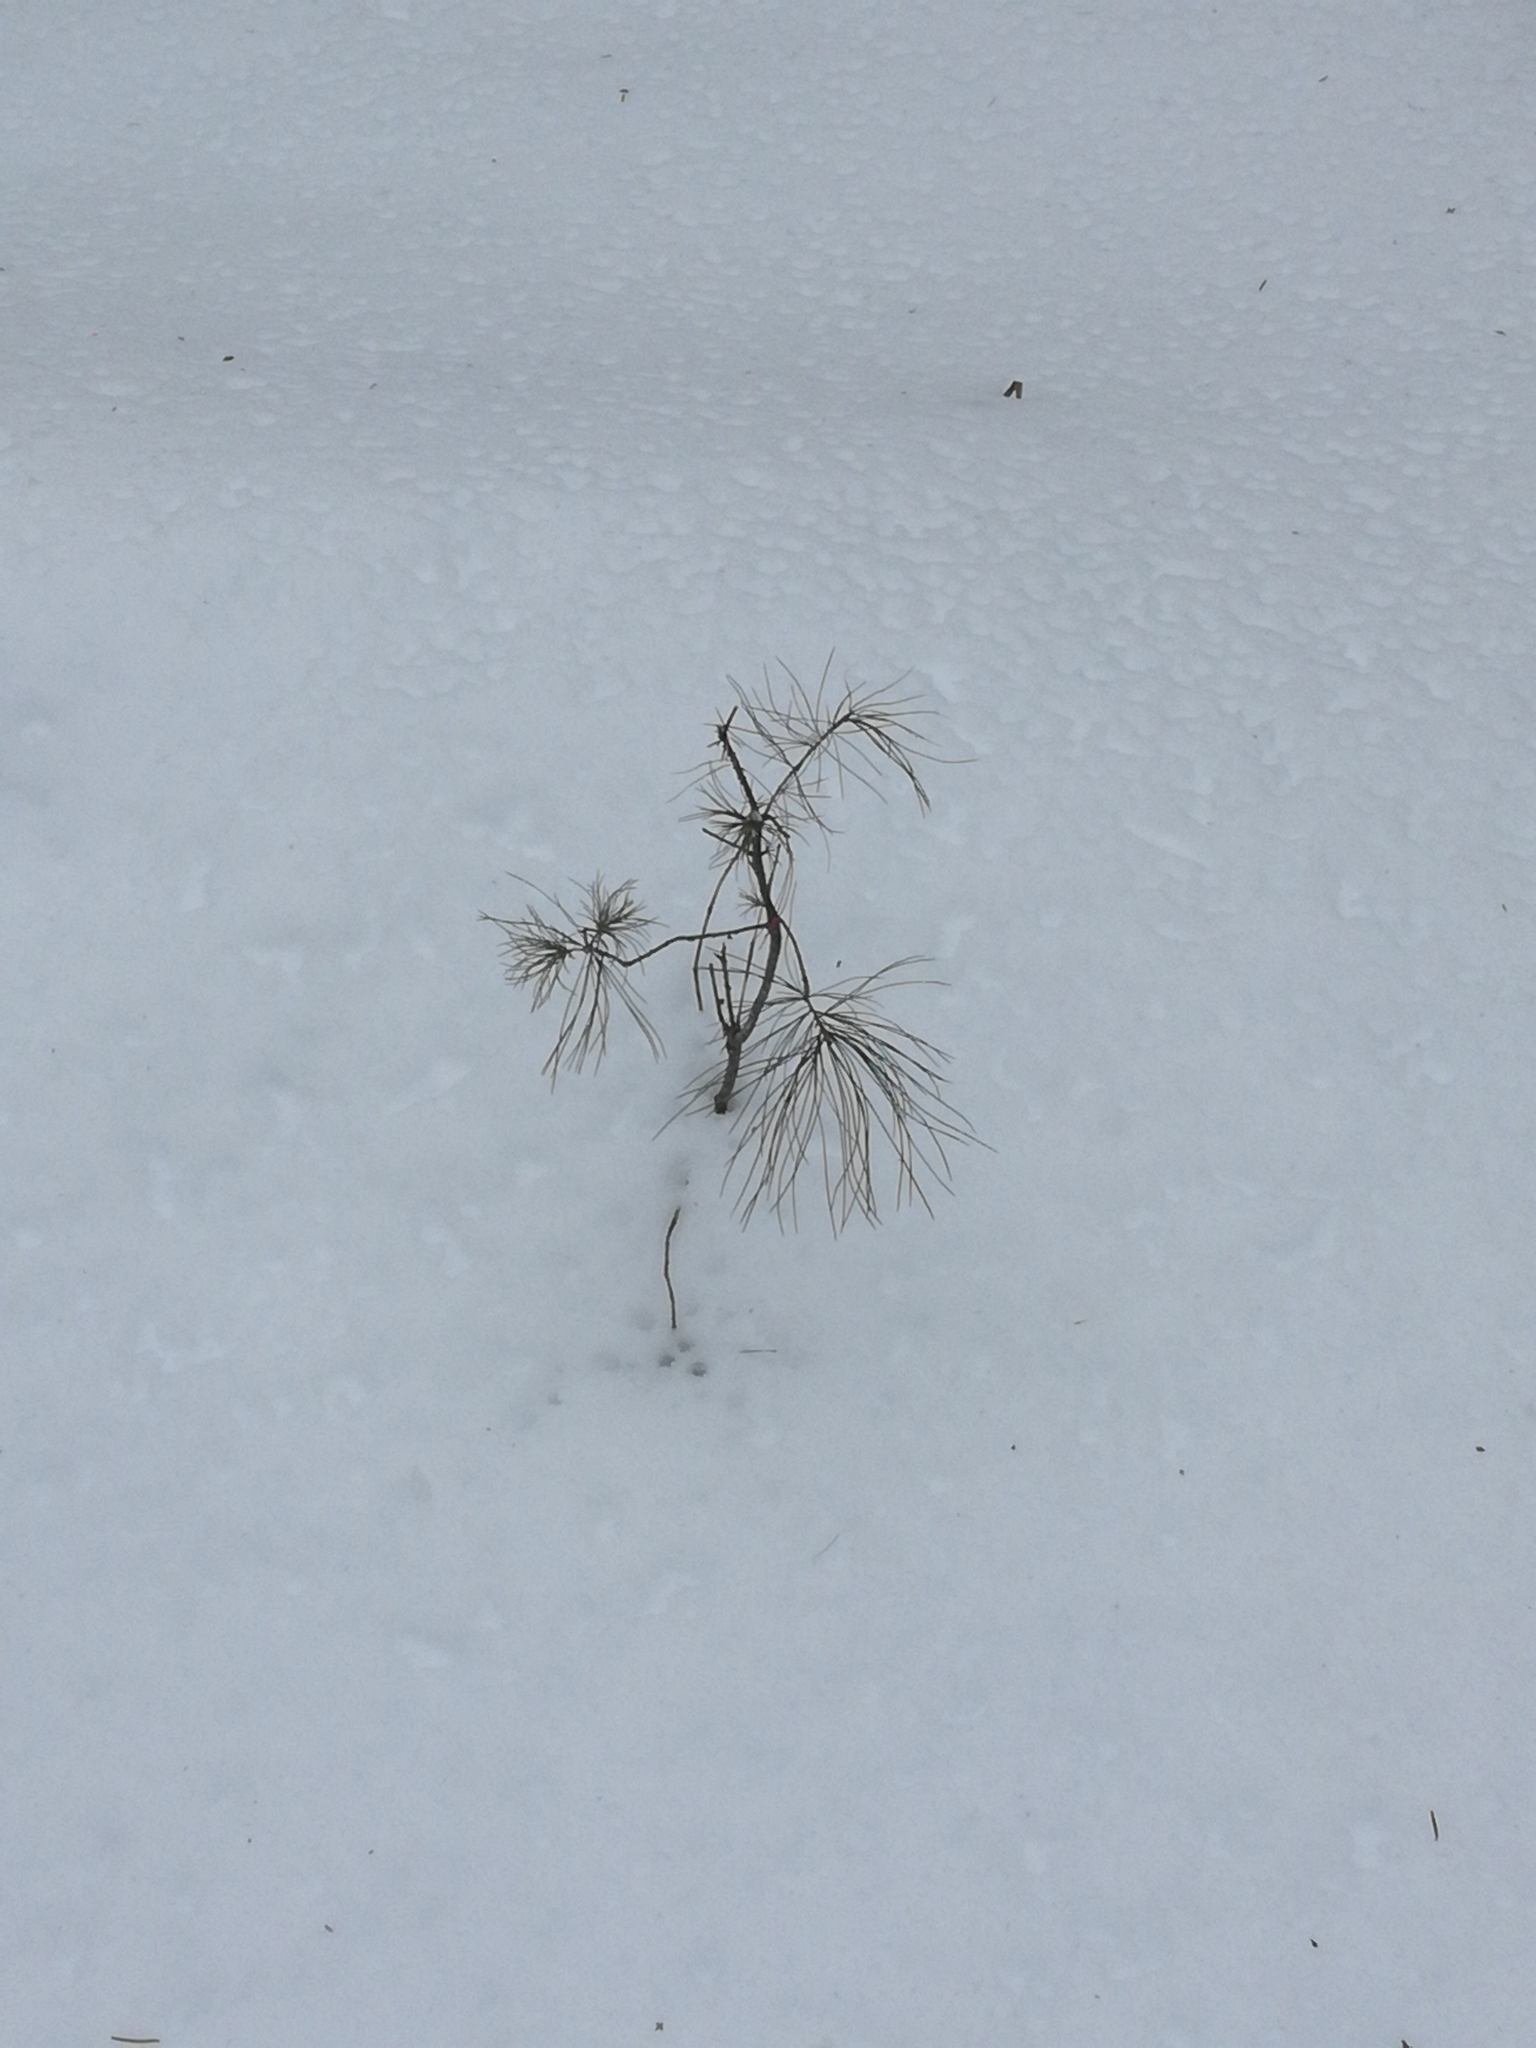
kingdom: Plantae
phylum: Tracheophyta
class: Pinopsida
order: Pinales
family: Pinaceae
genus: Pinus
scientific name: Pinus strobus
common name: Weymouth pine
